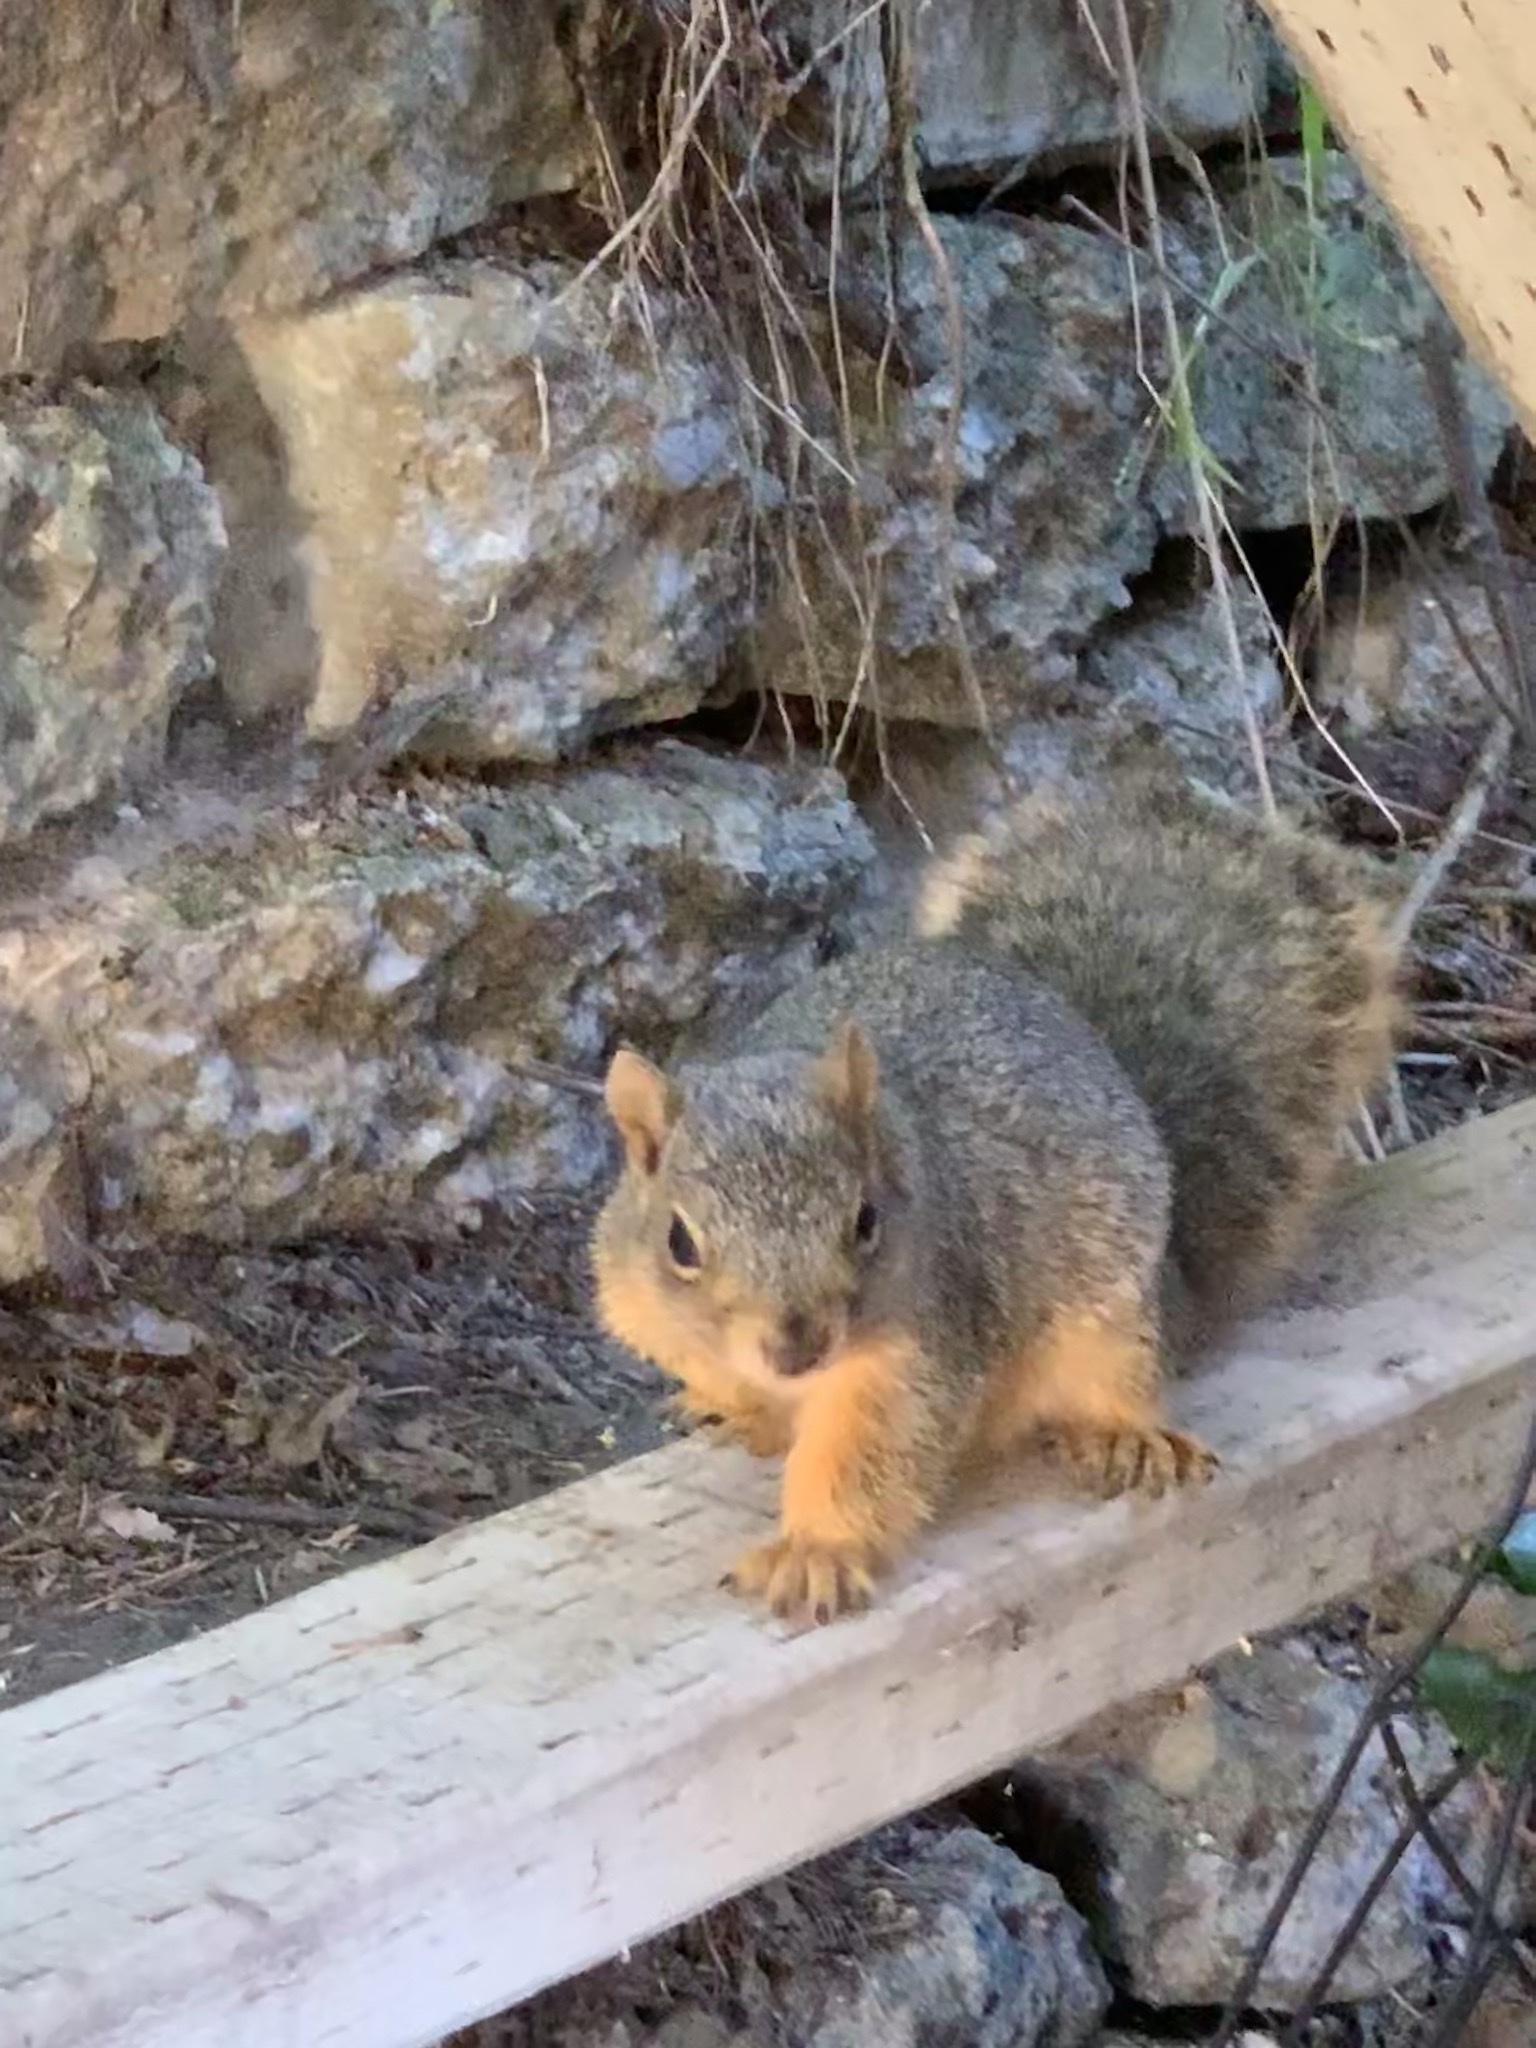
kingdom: Animalia
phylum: Chordata
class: Mammalia
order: Rodentia
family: Sciuridae
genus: Sciurus
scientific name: Sciurus niger
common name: Fox squirrel
